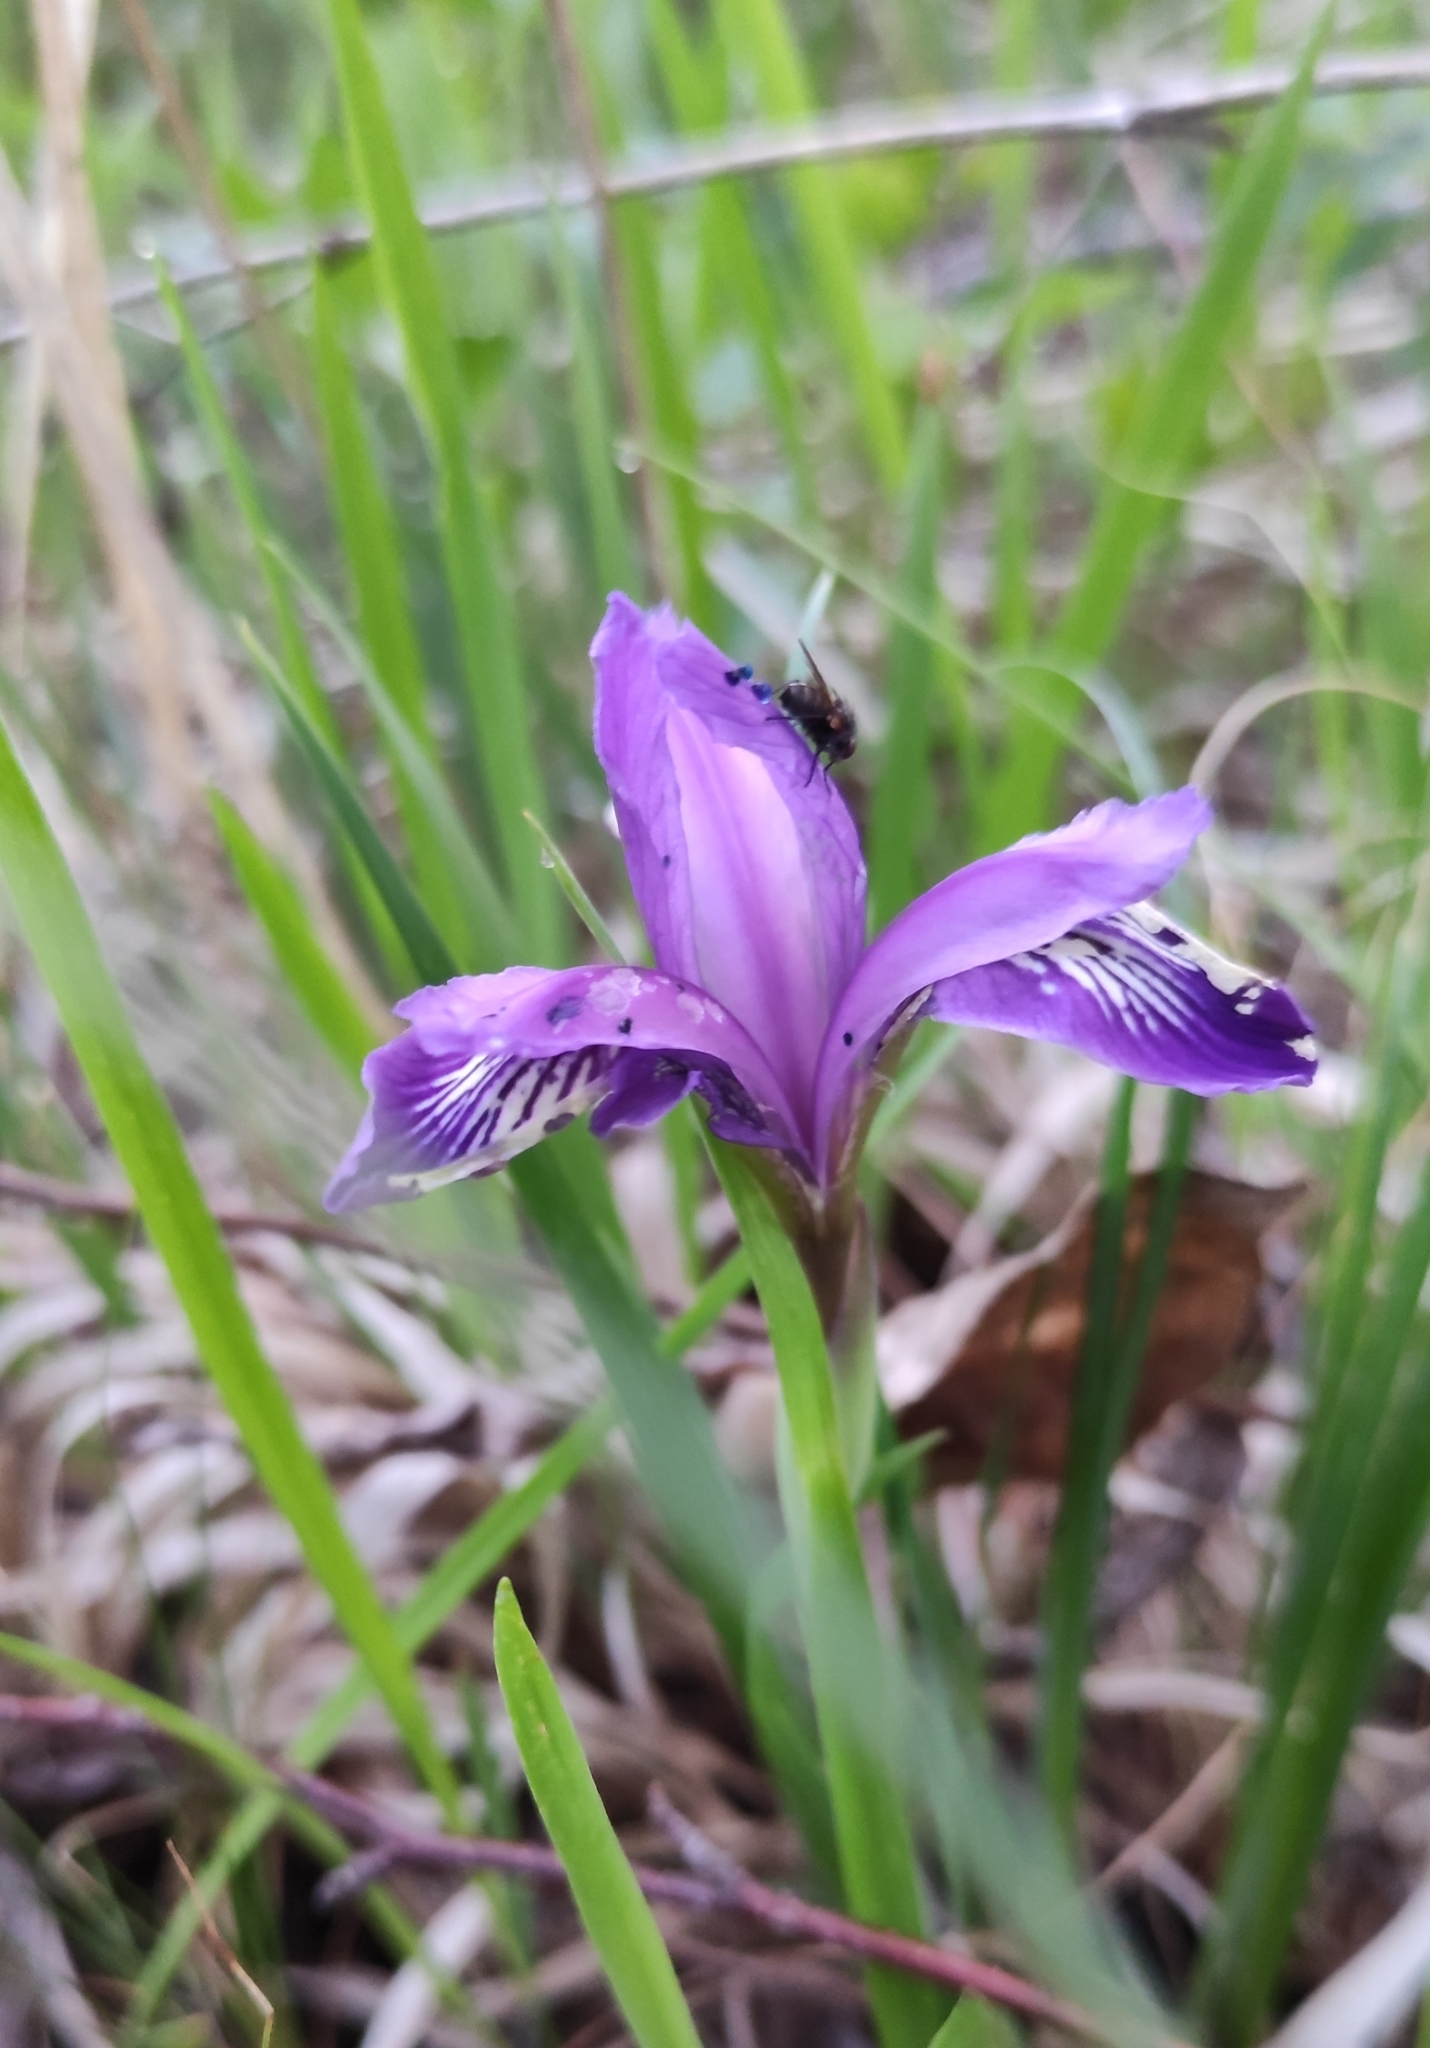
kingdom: Plantae
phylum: Tracheophyta
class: Liliopsida
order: Asparagales
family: Iridaceae
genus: Iris
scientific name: Iris ruthenica
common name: Purple-bract iris
